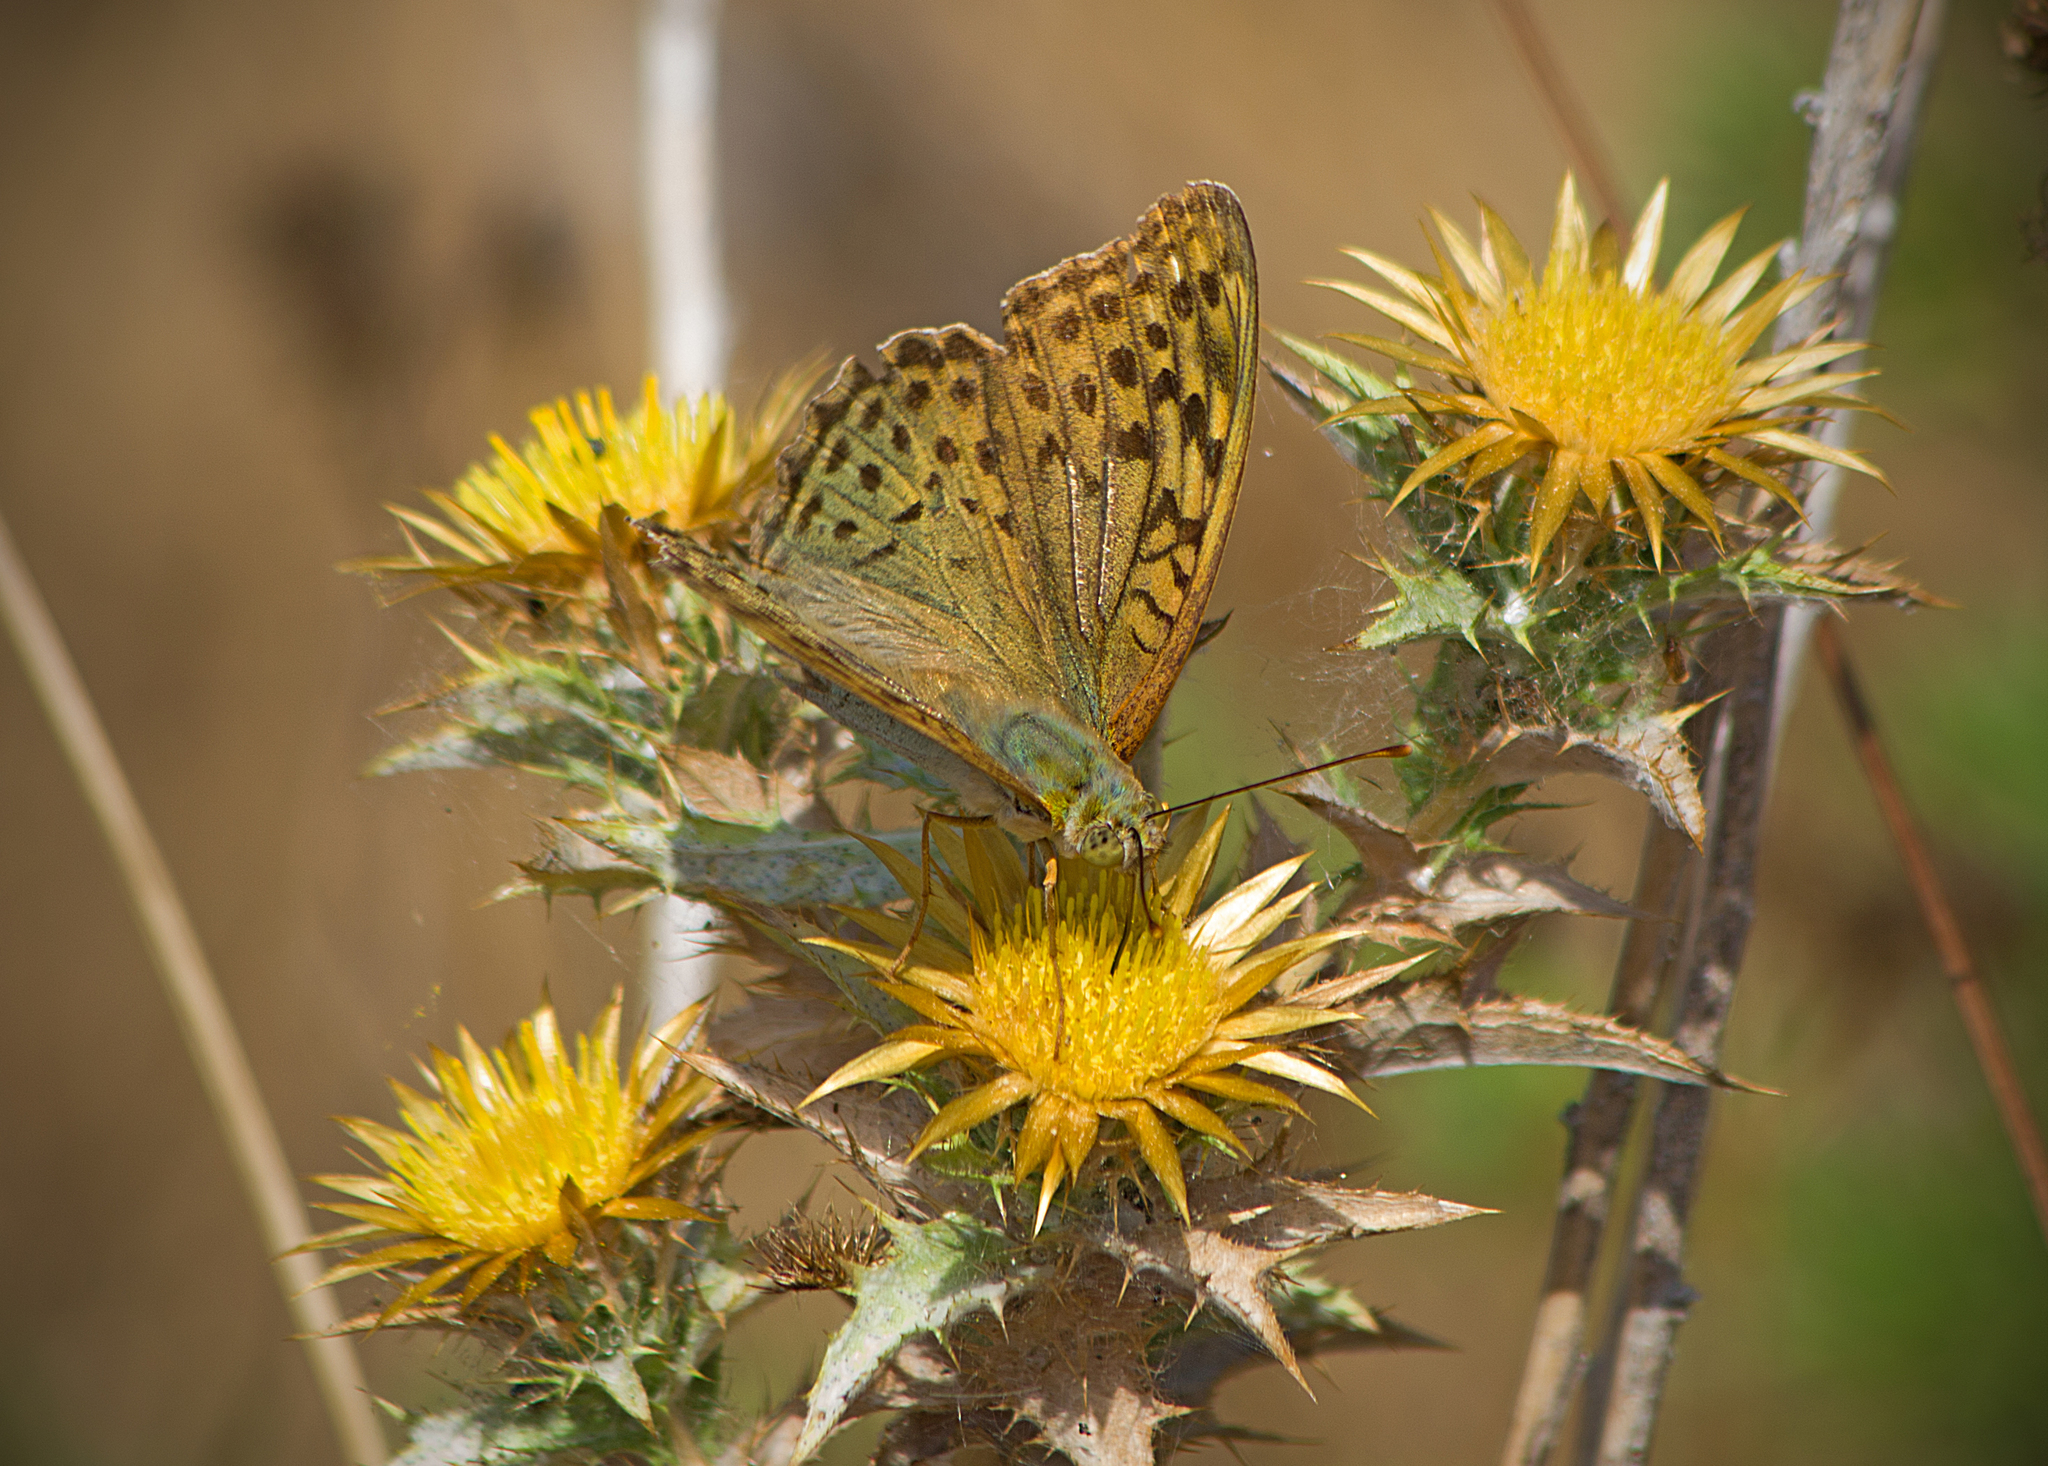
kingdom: Animalia
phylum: Arthropoda
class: Insecta
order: Lepidoptera
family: Nymphalidae
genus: Damora
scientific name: Damora pandora
